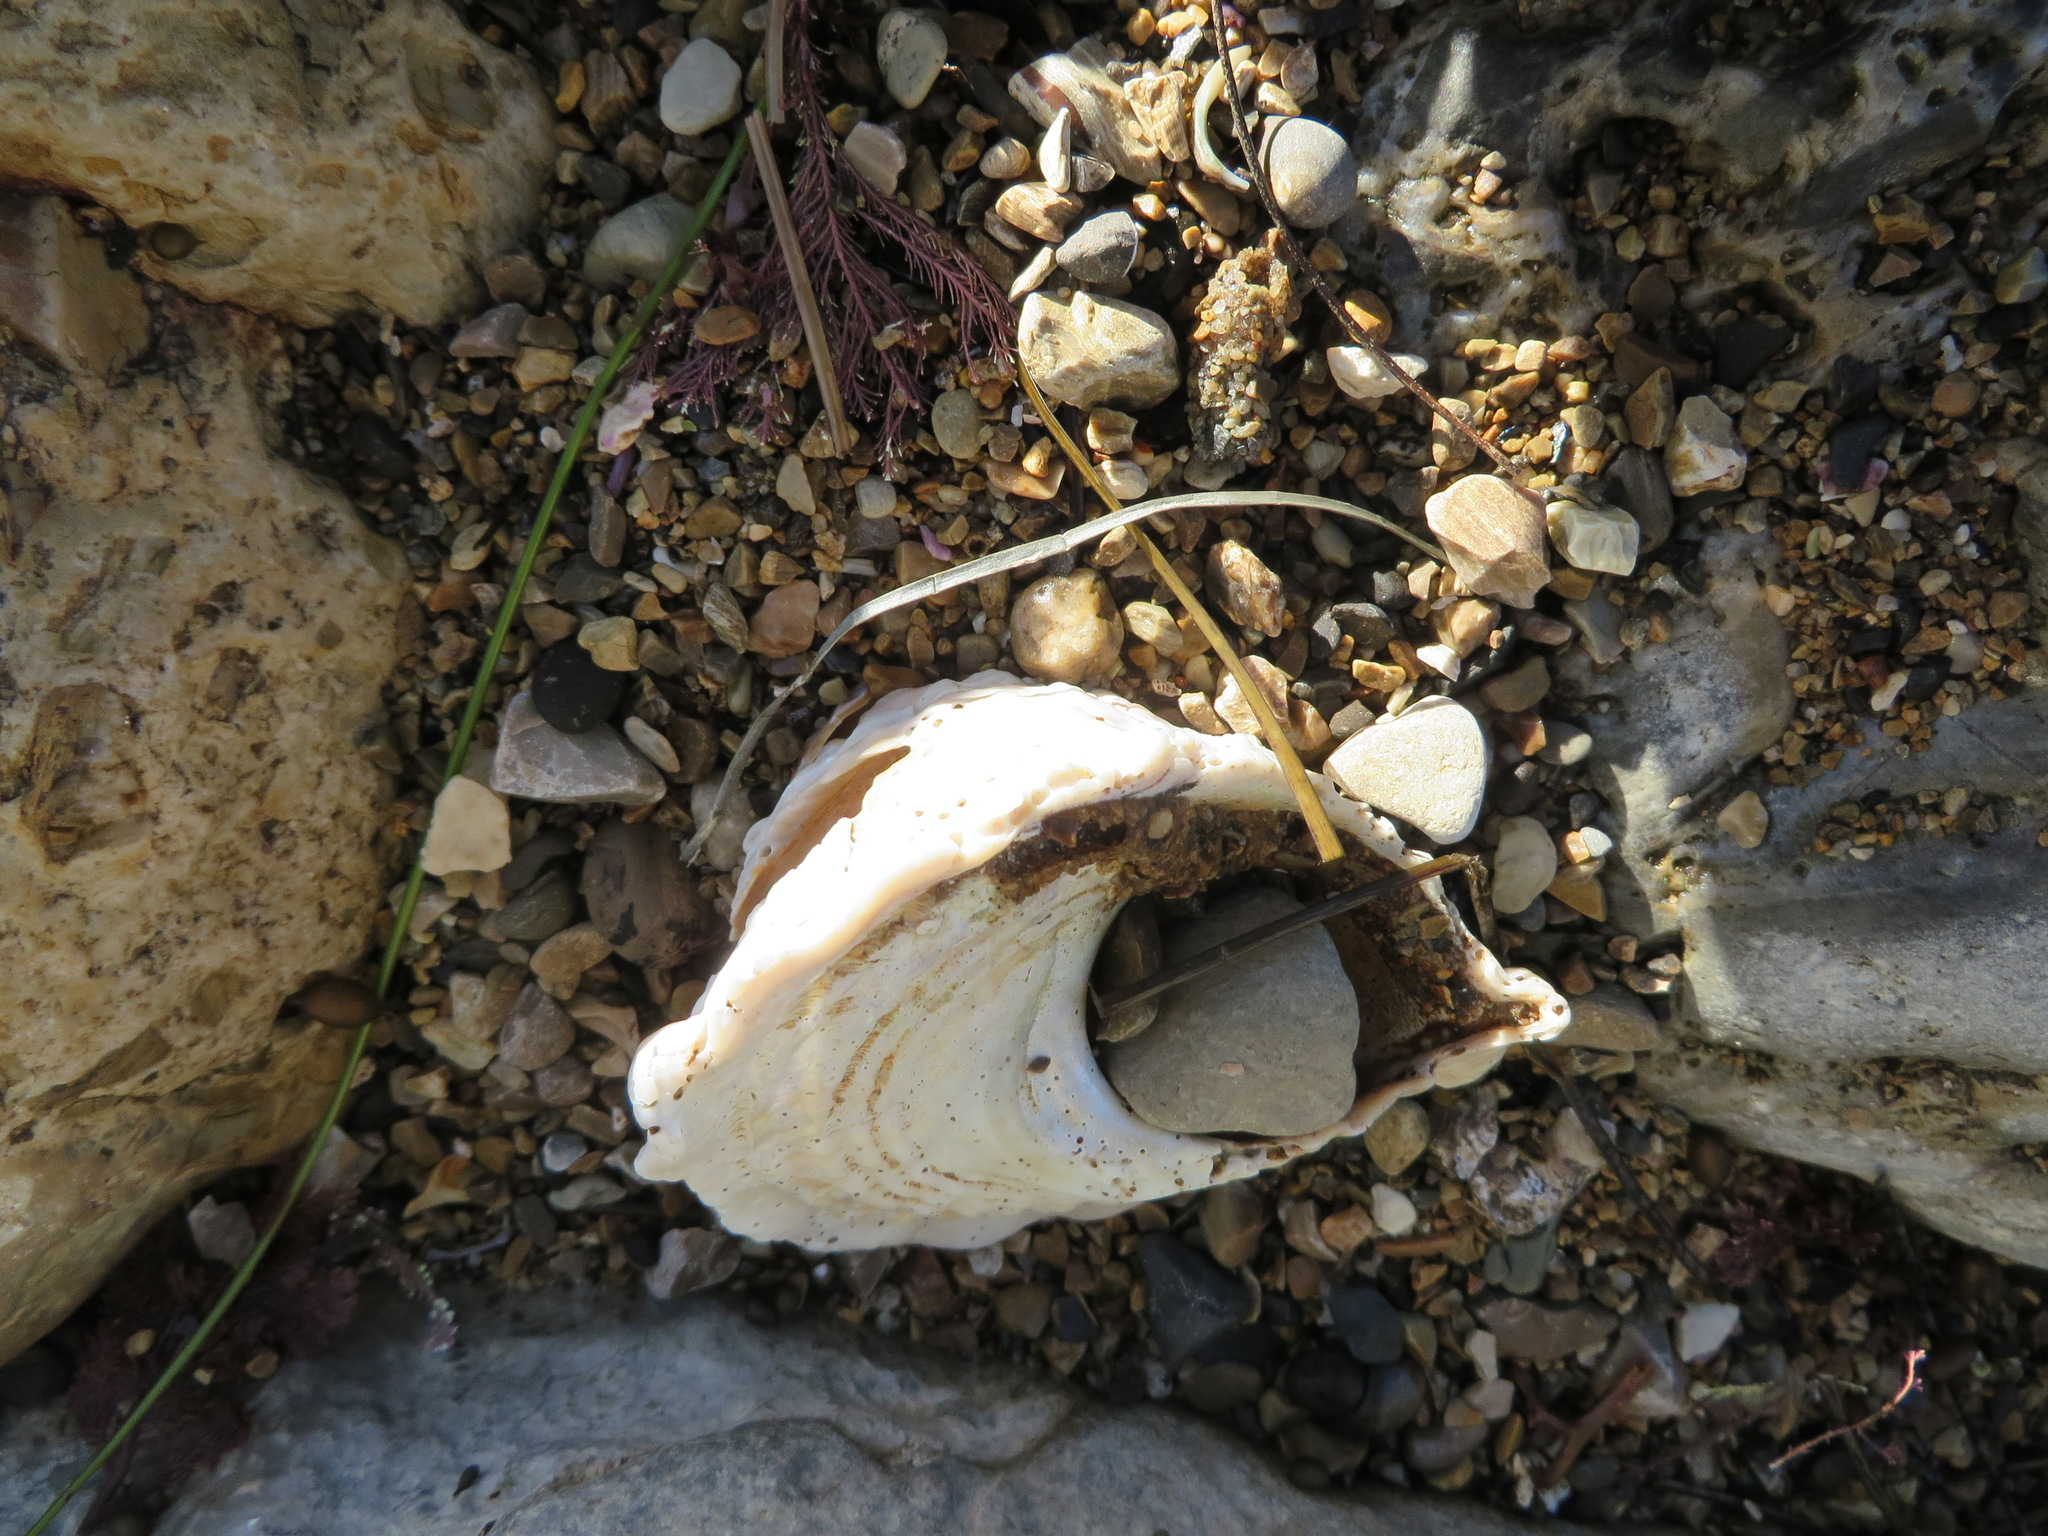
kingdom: Animalia
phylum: Mollusca
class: Gastropoda
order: Trochida
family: Turbinidae
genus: Megastraea
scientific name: Megastraea undosa
